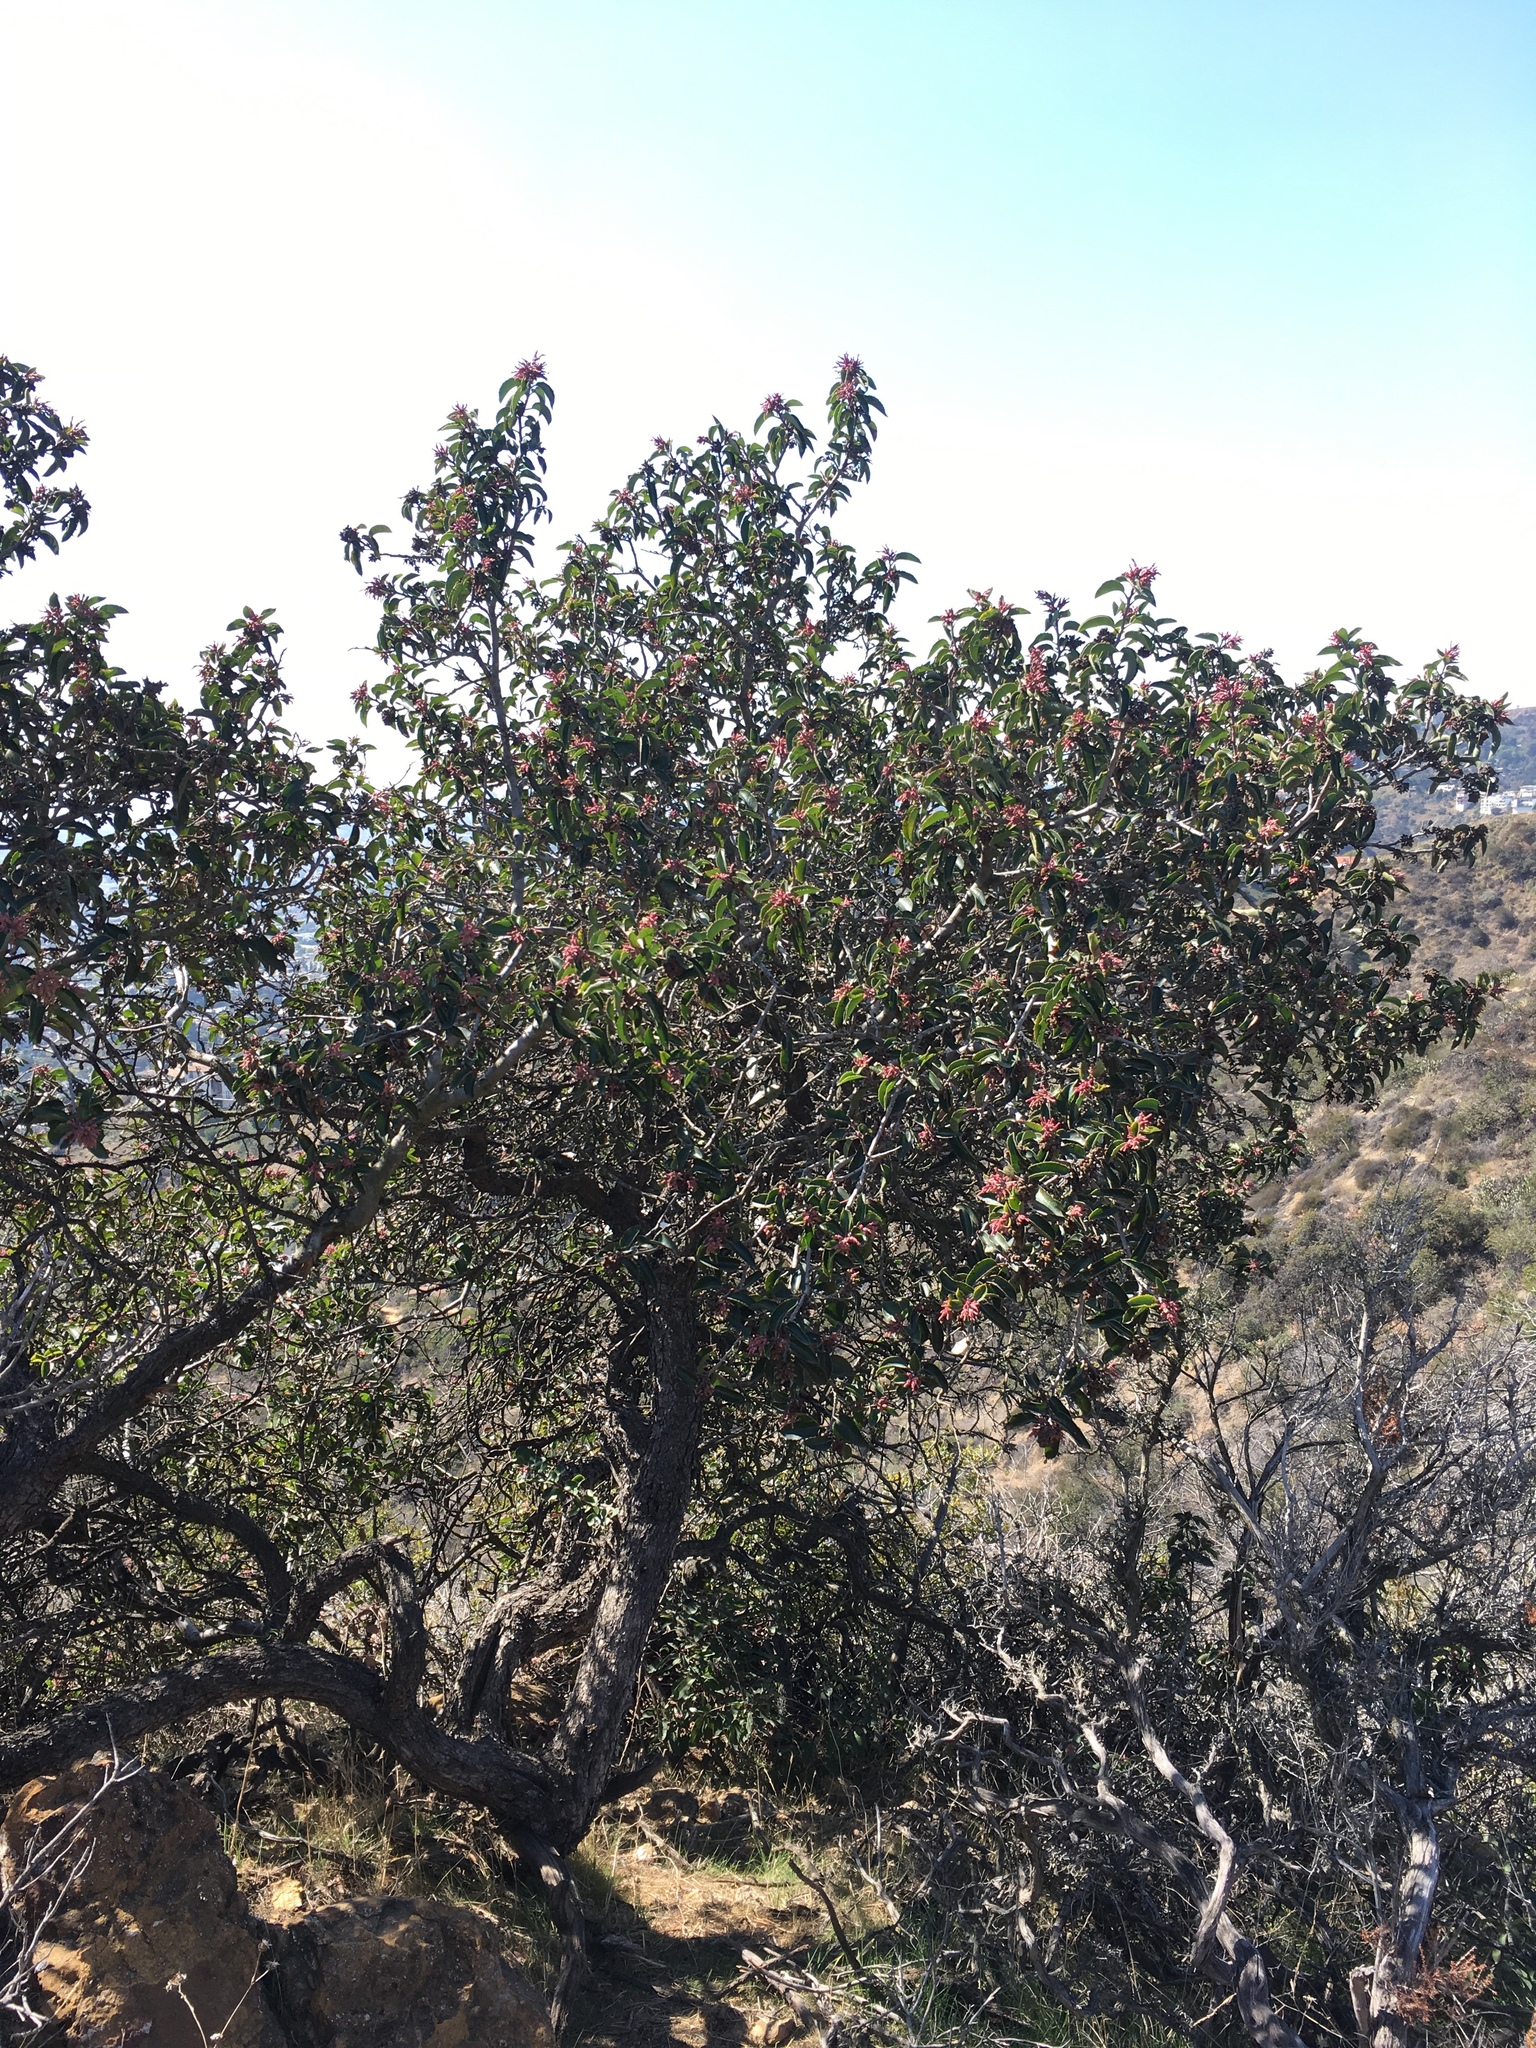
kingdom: Plantae
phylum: Tracheophyta
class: Magnoliopsida
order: Sapindales
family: Anacardiaceae
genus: Rhus
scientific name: Rhus ovata
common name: Sugar sumac
